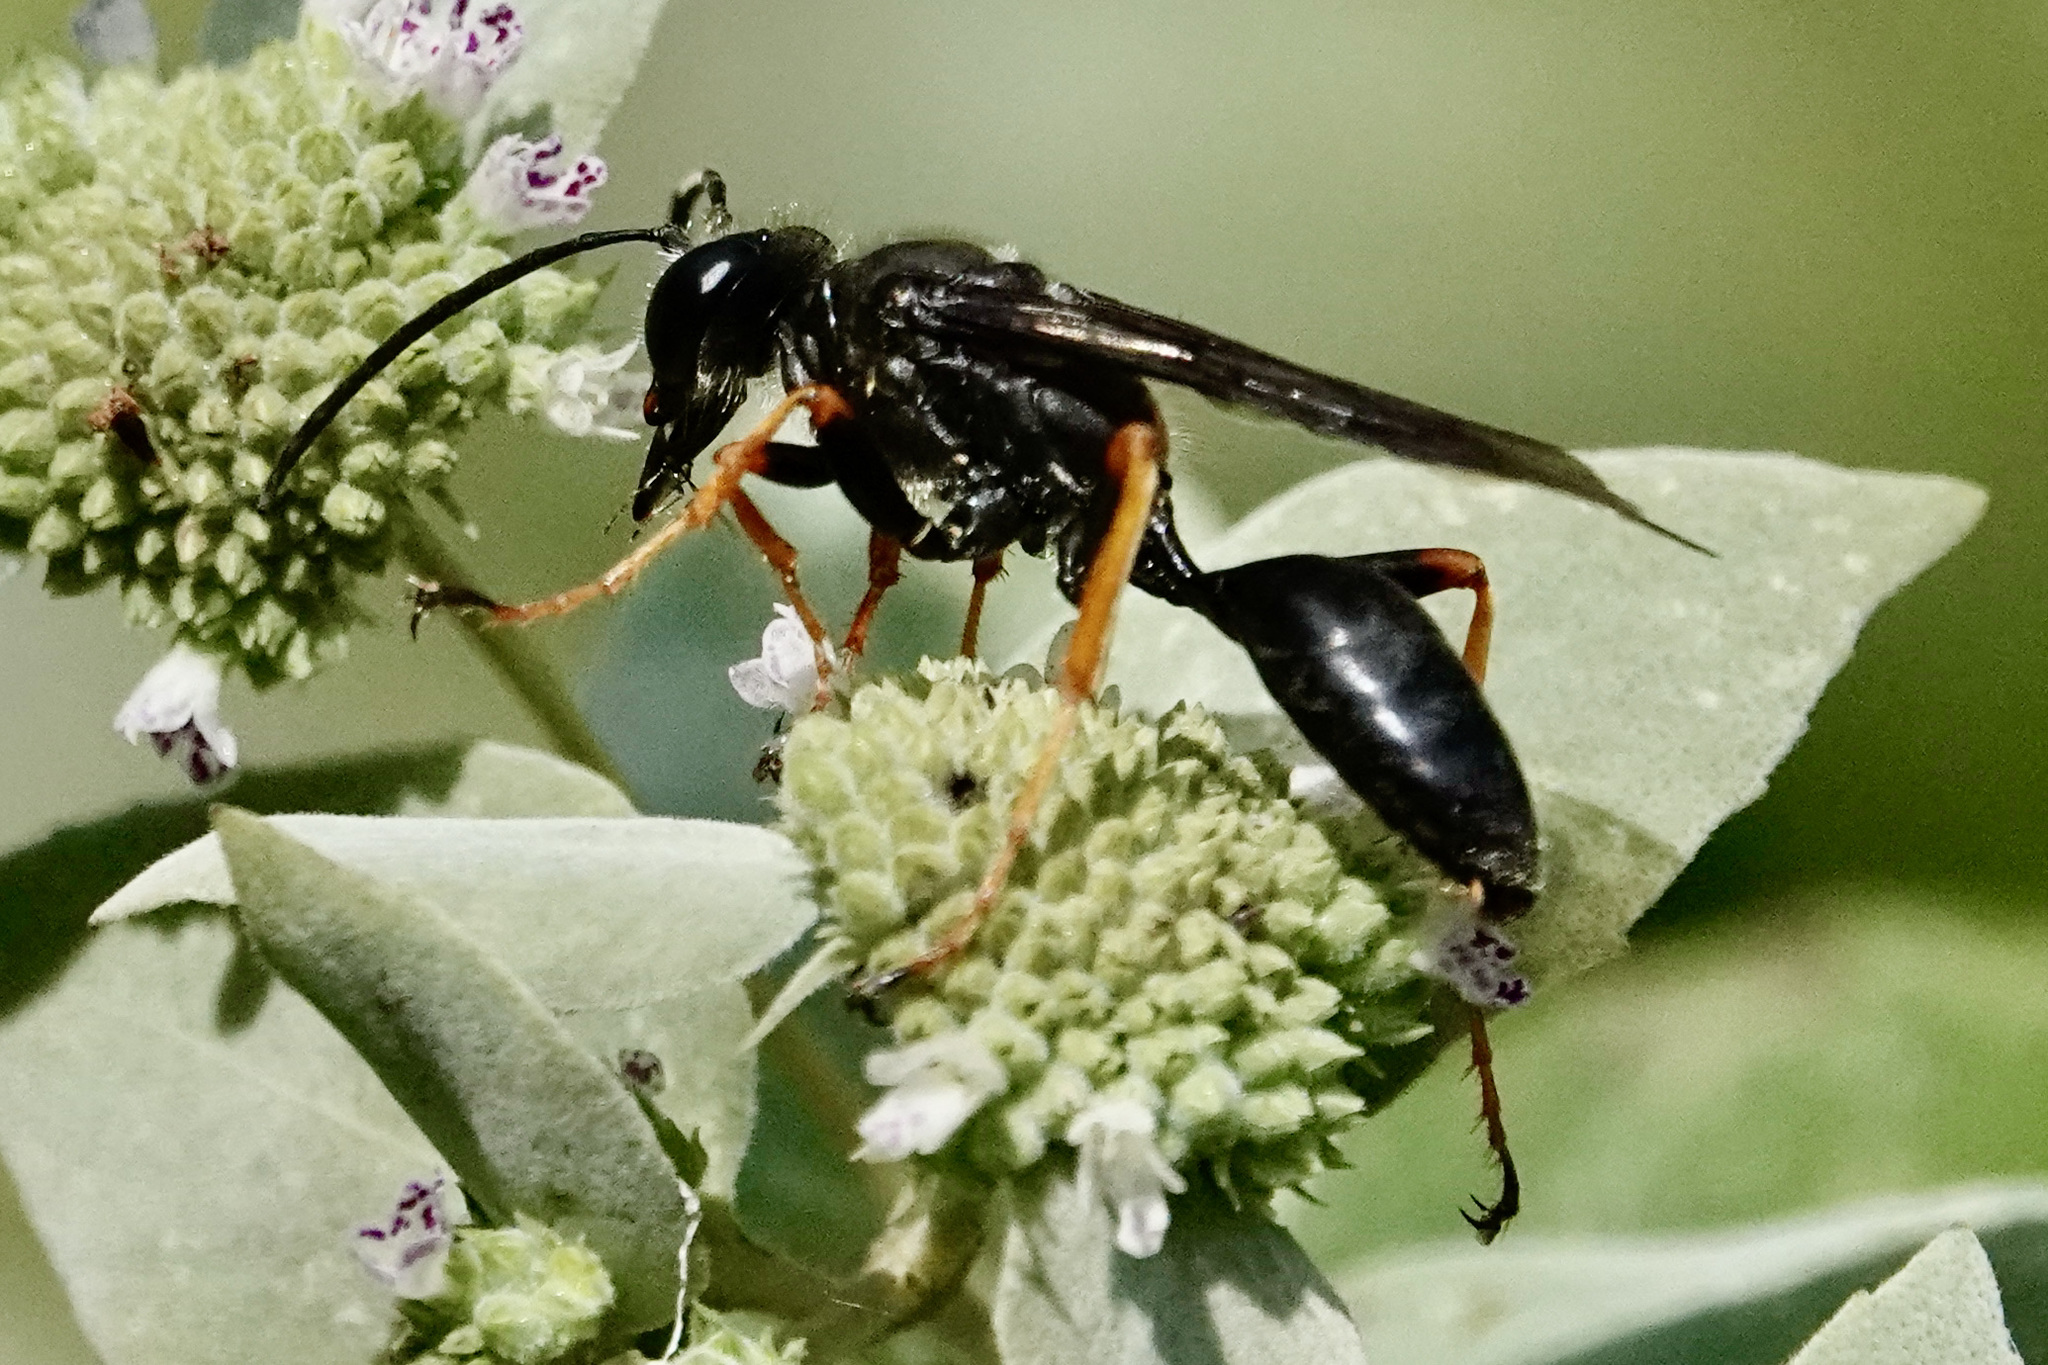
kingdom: Animalia
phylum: Arthropoda
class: Insecta
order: Hymenoptera
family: Sphecidae
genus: Sphex
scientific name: Sphex nudus
